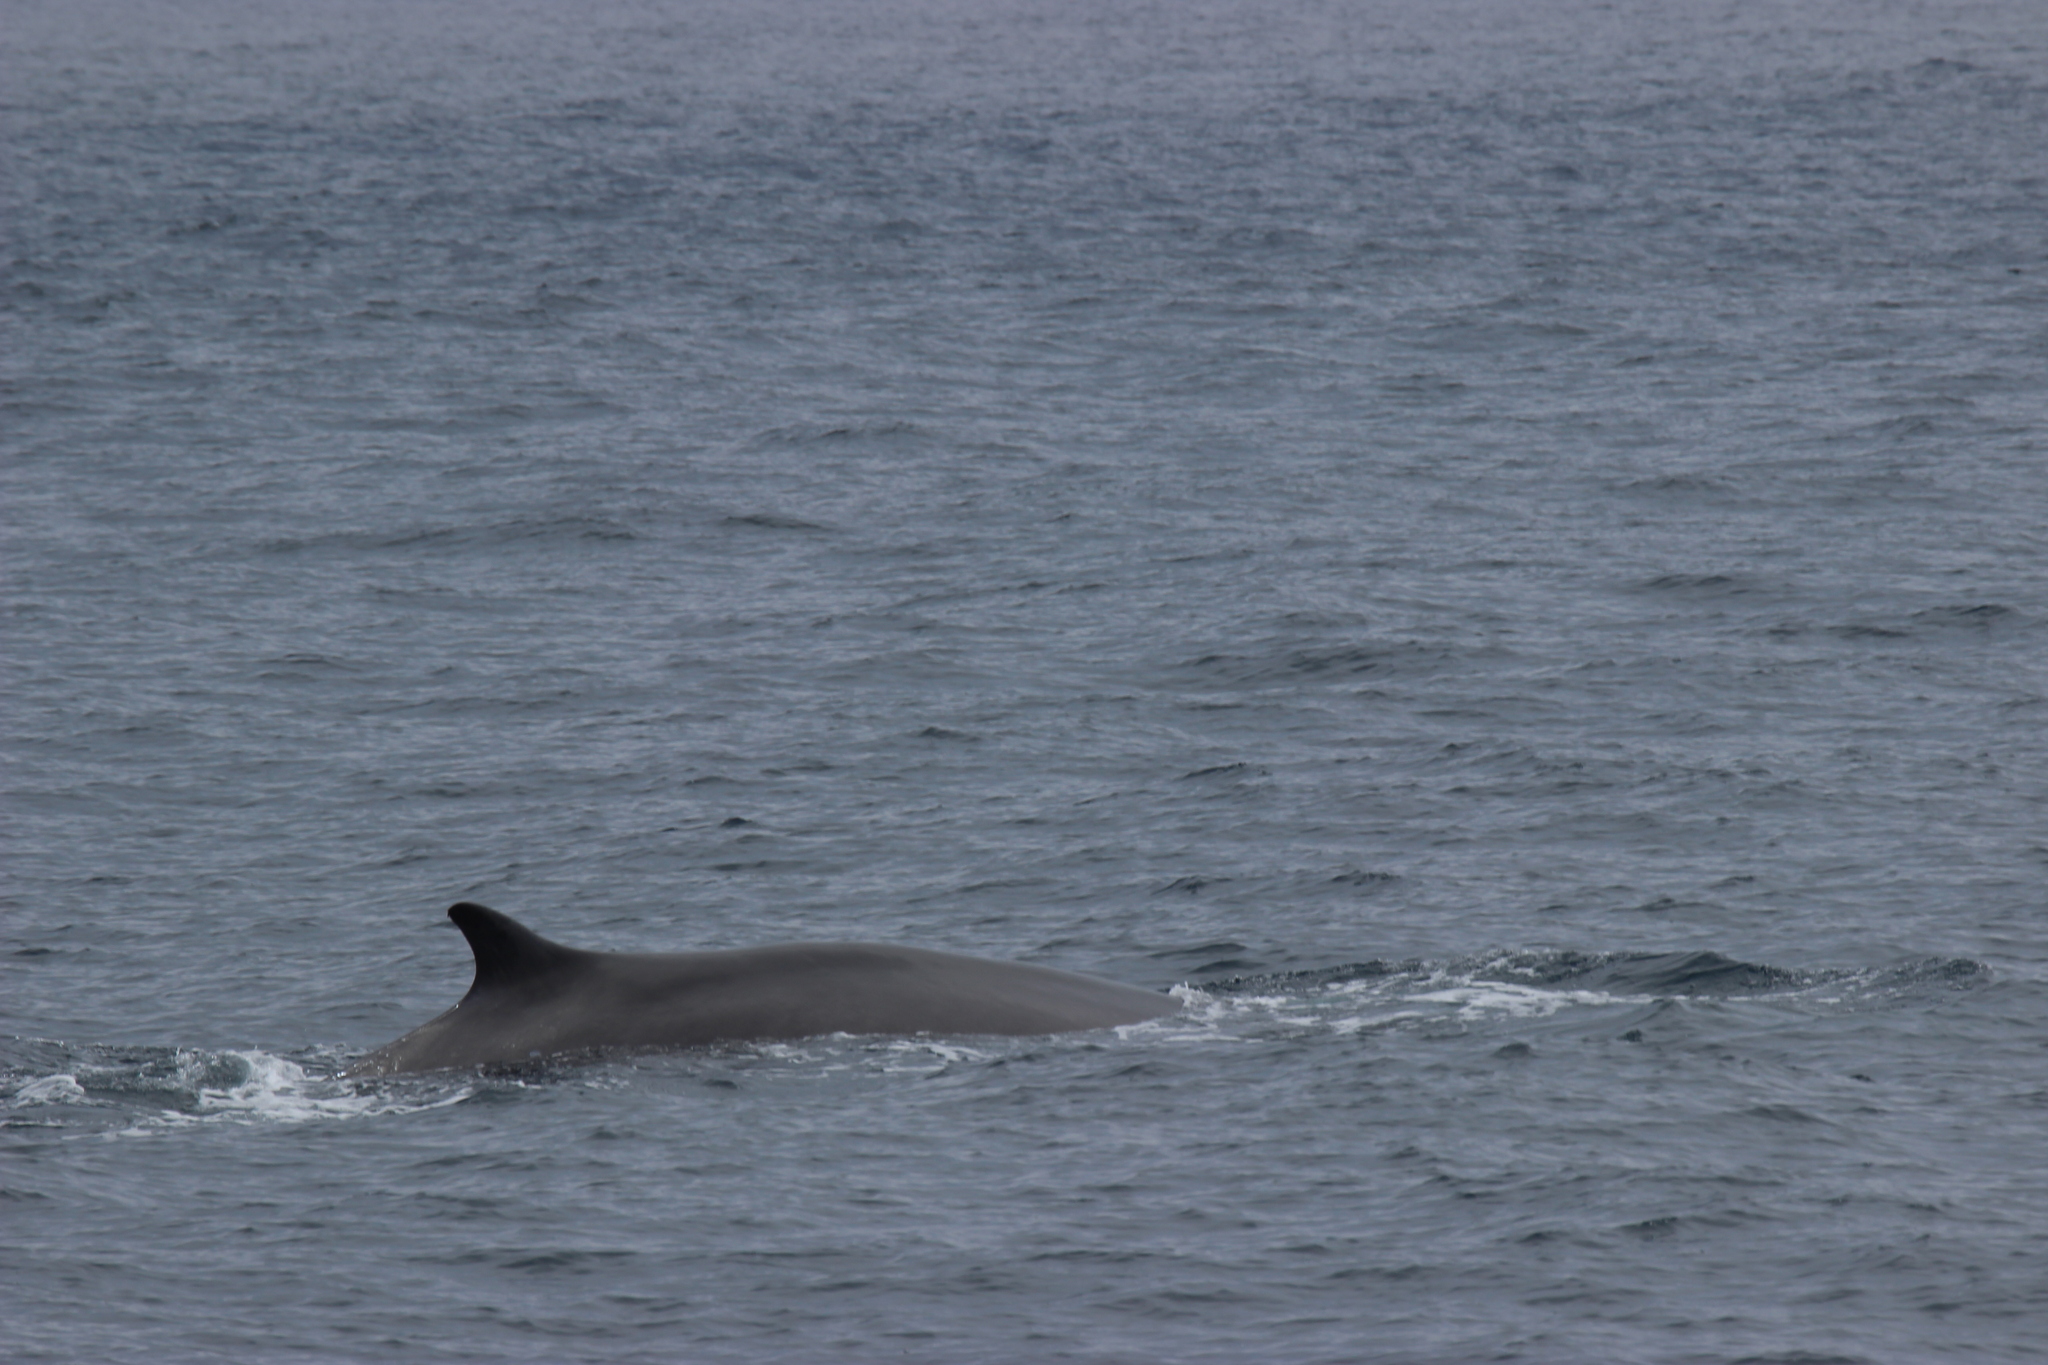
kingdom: Animalia
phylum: Chordata
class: Mammalia
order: Cetacea
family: Balaenopteridae
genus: Balaenoptera
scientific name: Balaenoptera physalus
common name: Fin whale
